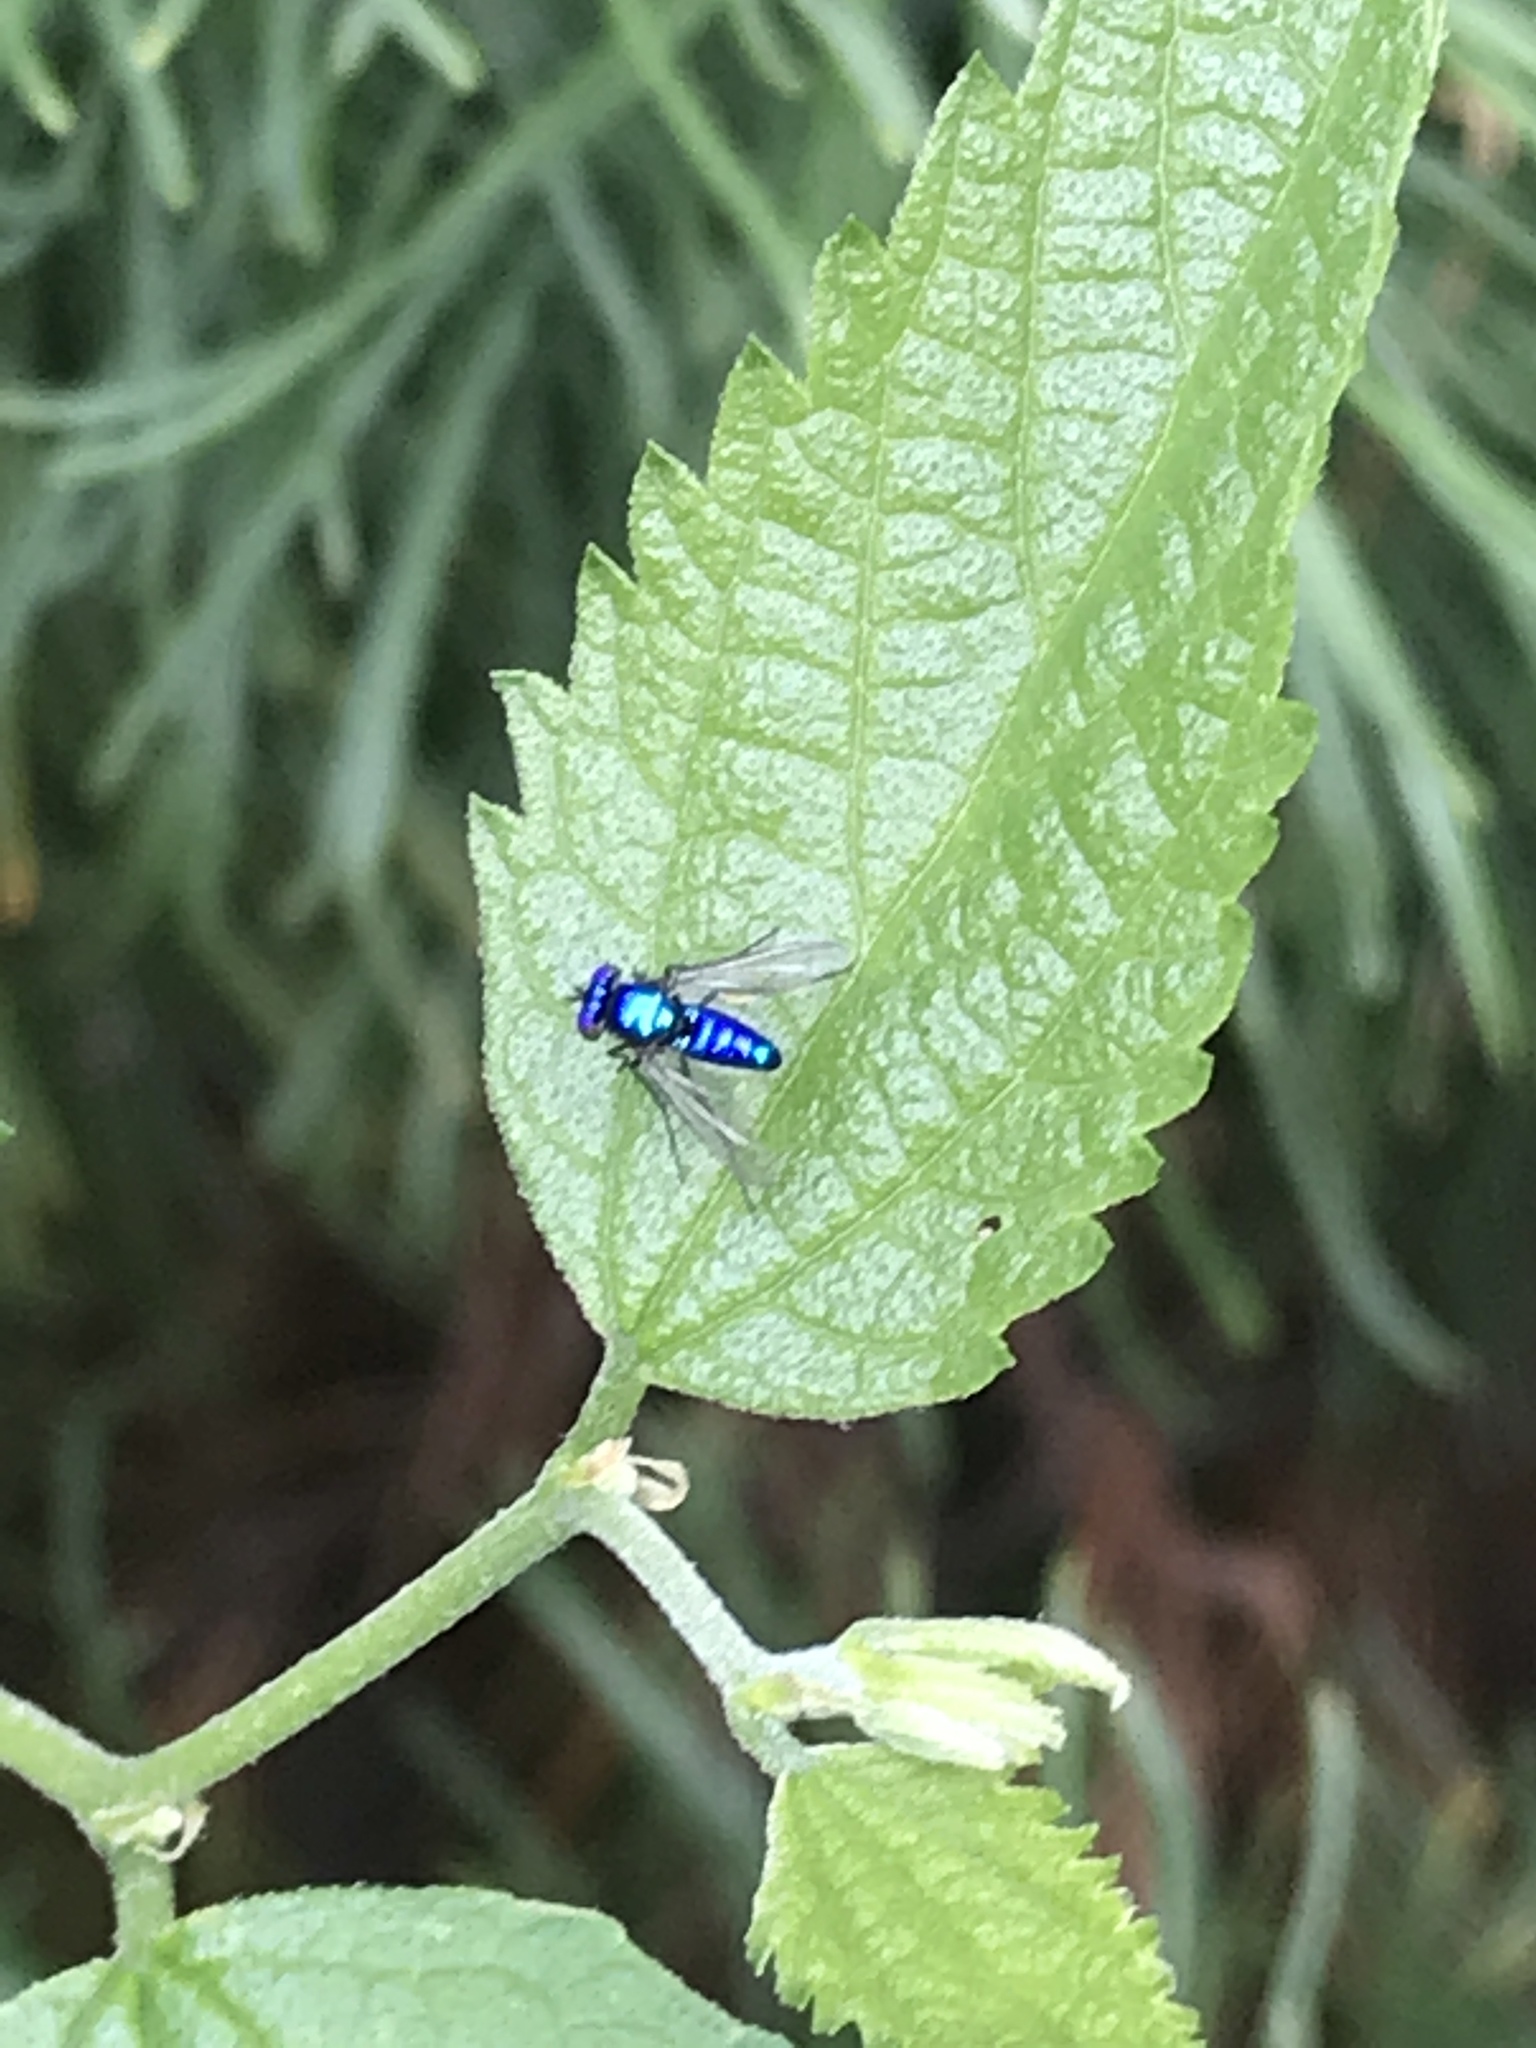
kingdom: Animalia
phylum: Arthropoda
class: Insecta
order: Diptera
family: Dolichopodidae
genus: Condylostylus
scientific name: Condylostylus mundus
